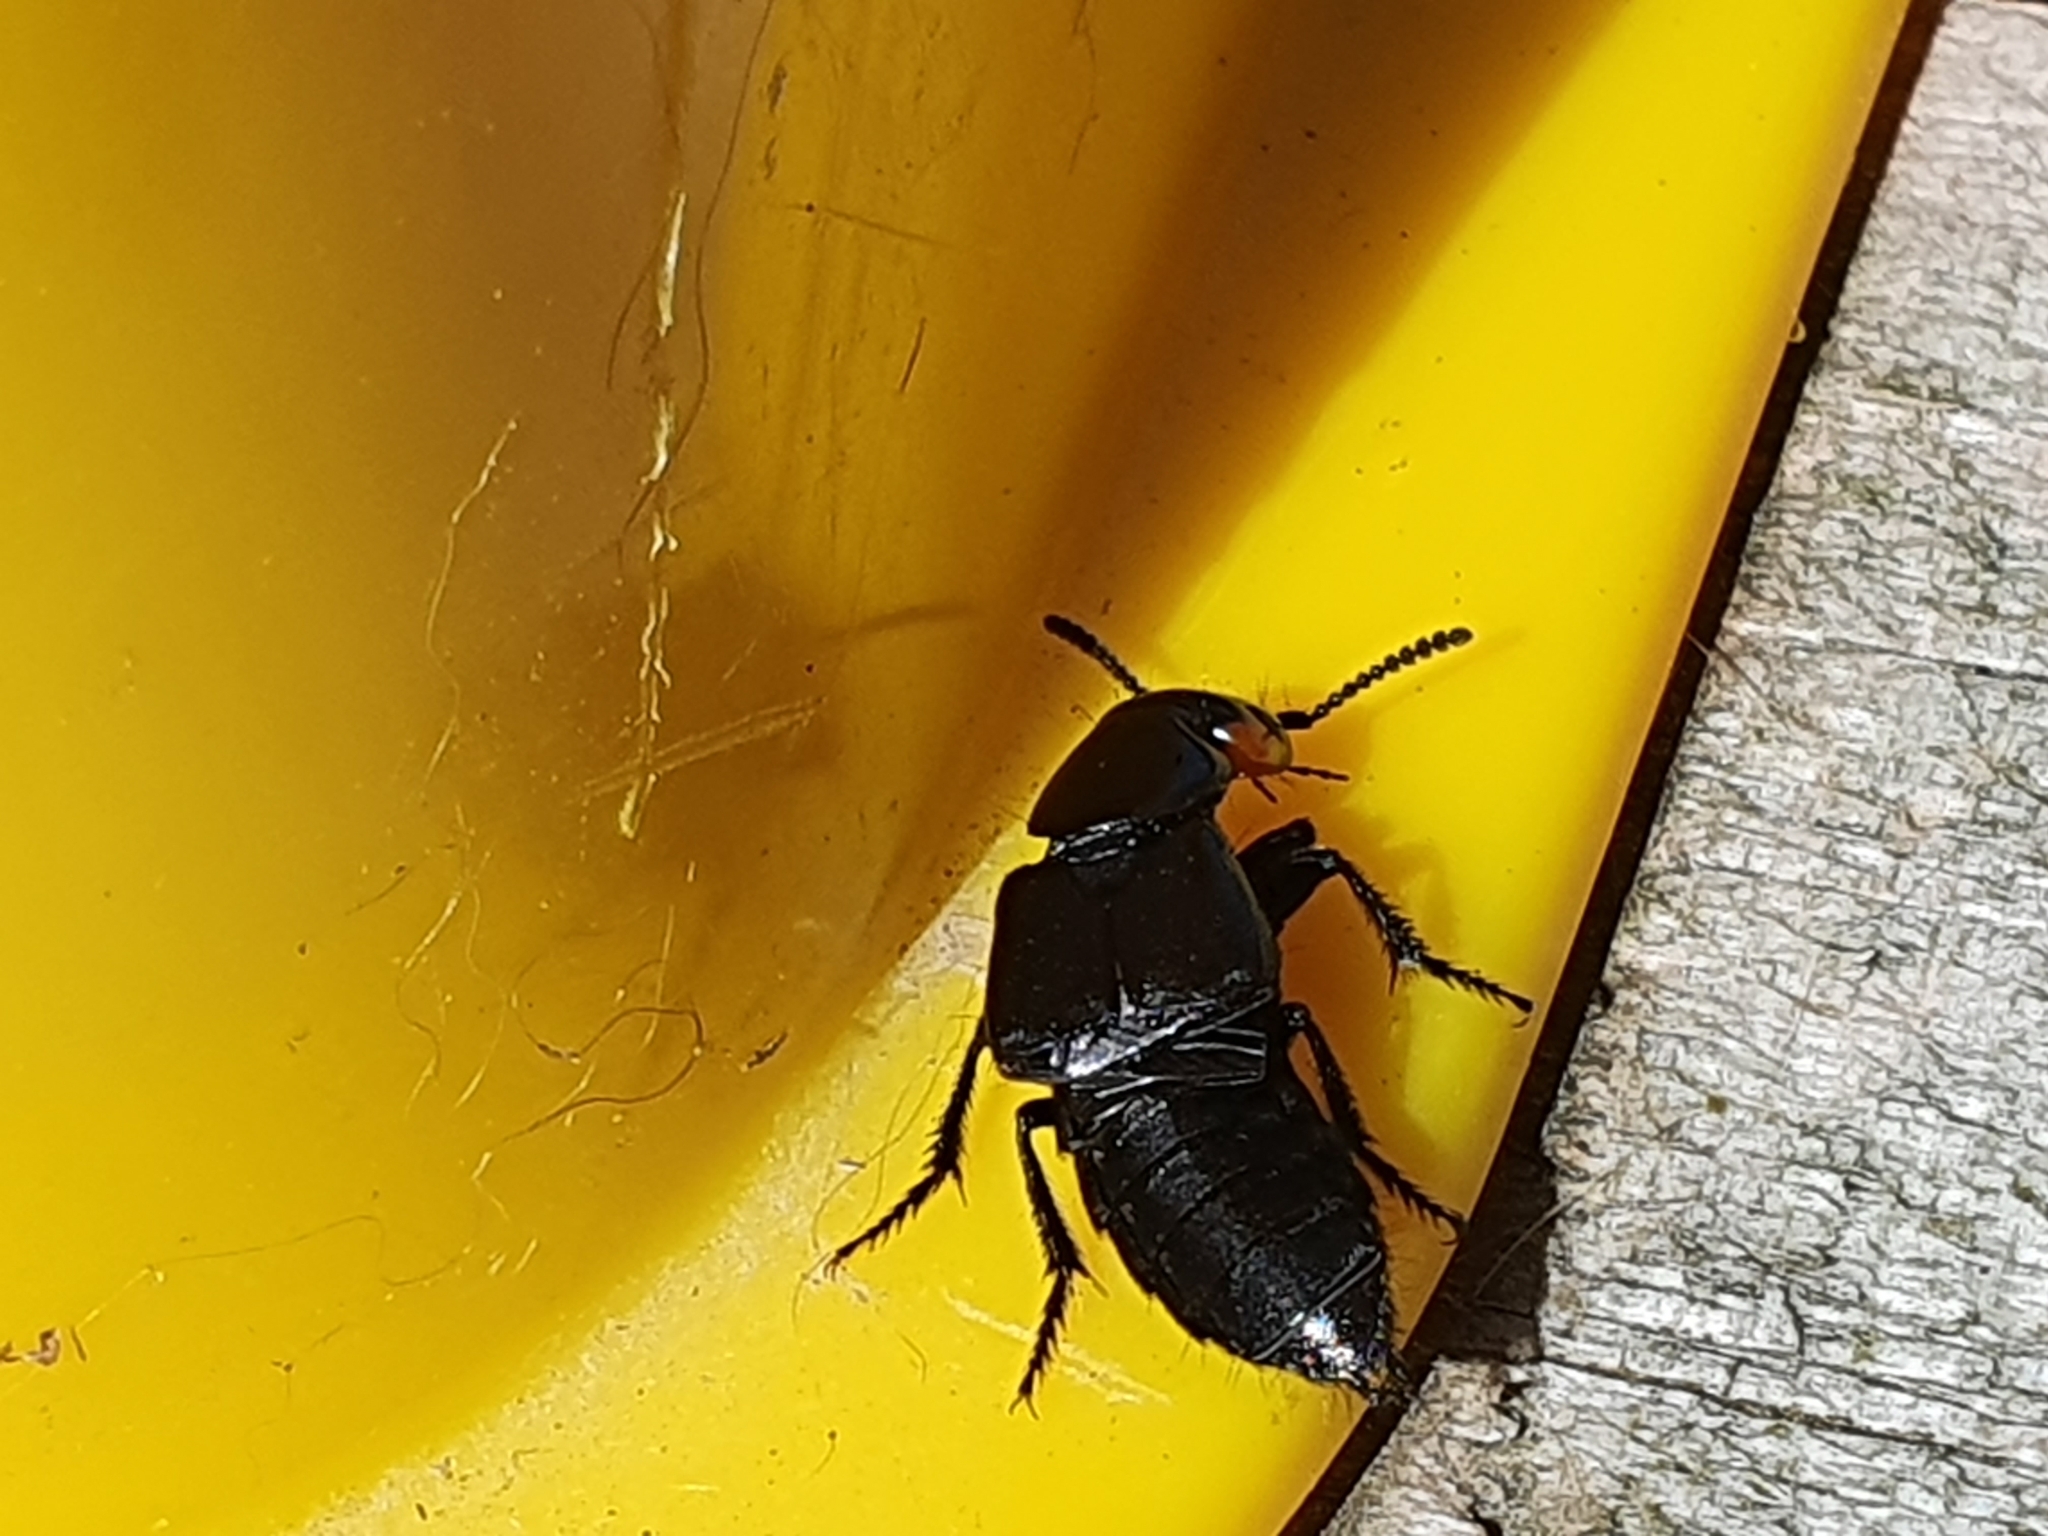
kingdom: Animalia
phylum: Arthropoda
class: Insecta
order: Coleoptera
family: Staphylinidae
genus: Creophilus
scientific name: Creophilus oculatus
